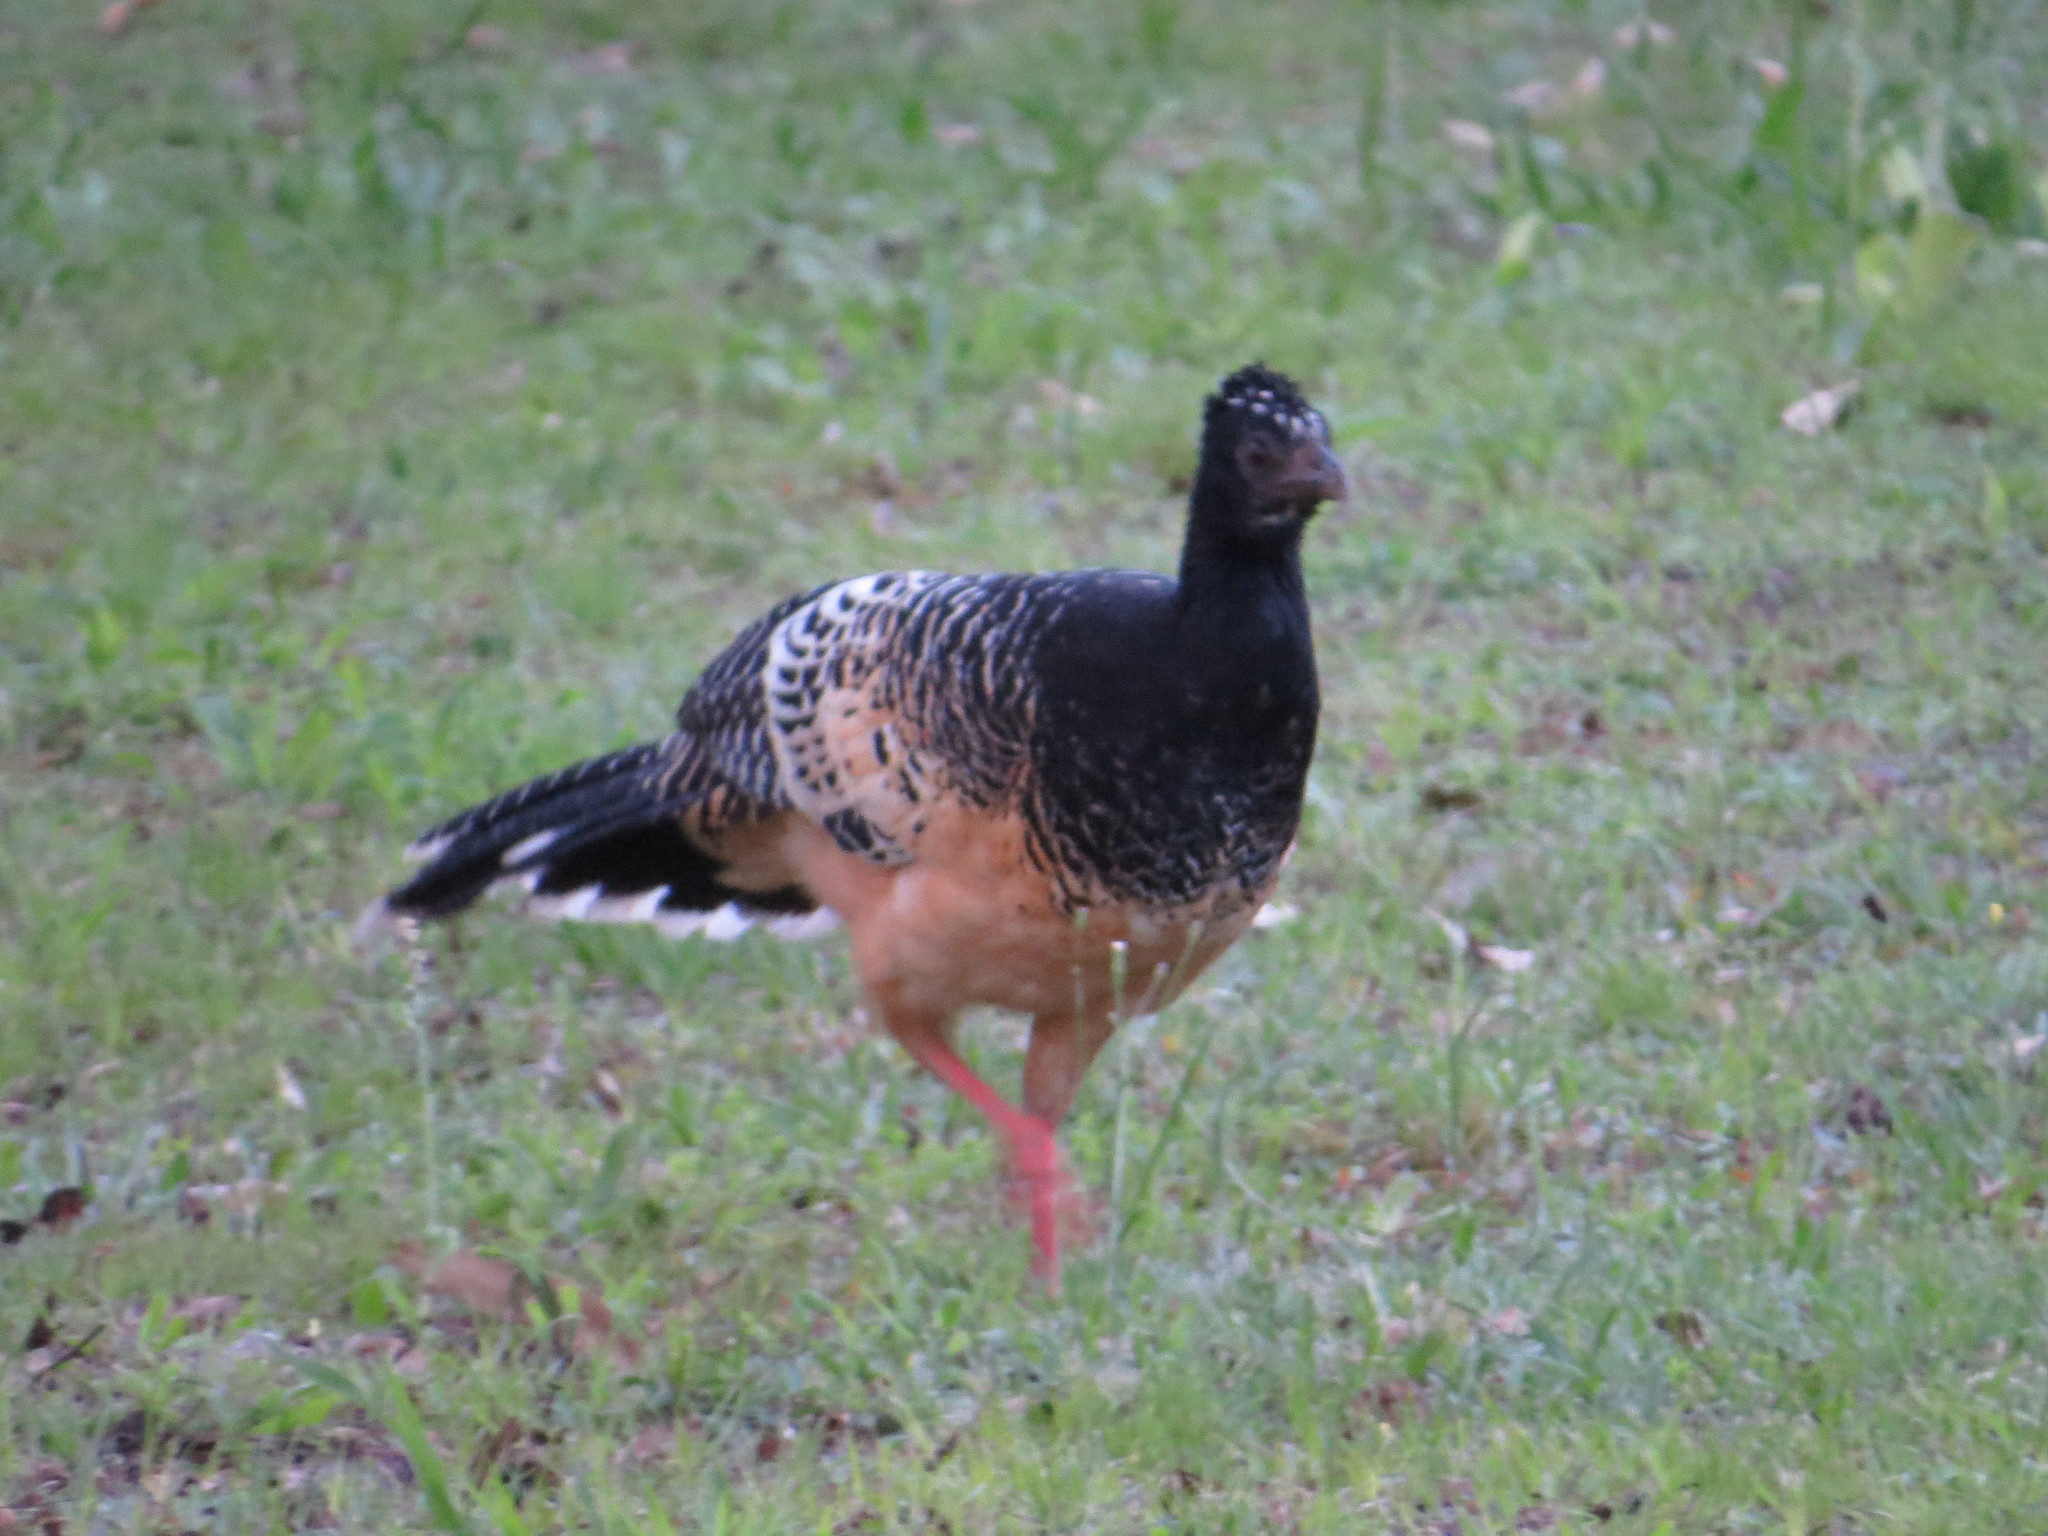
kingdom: Animalia
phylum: Chordata
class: Aves
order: Galliformes
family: Cracidae
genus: Crax
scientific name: Crax fasciolata
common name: Bare-faced curassow
